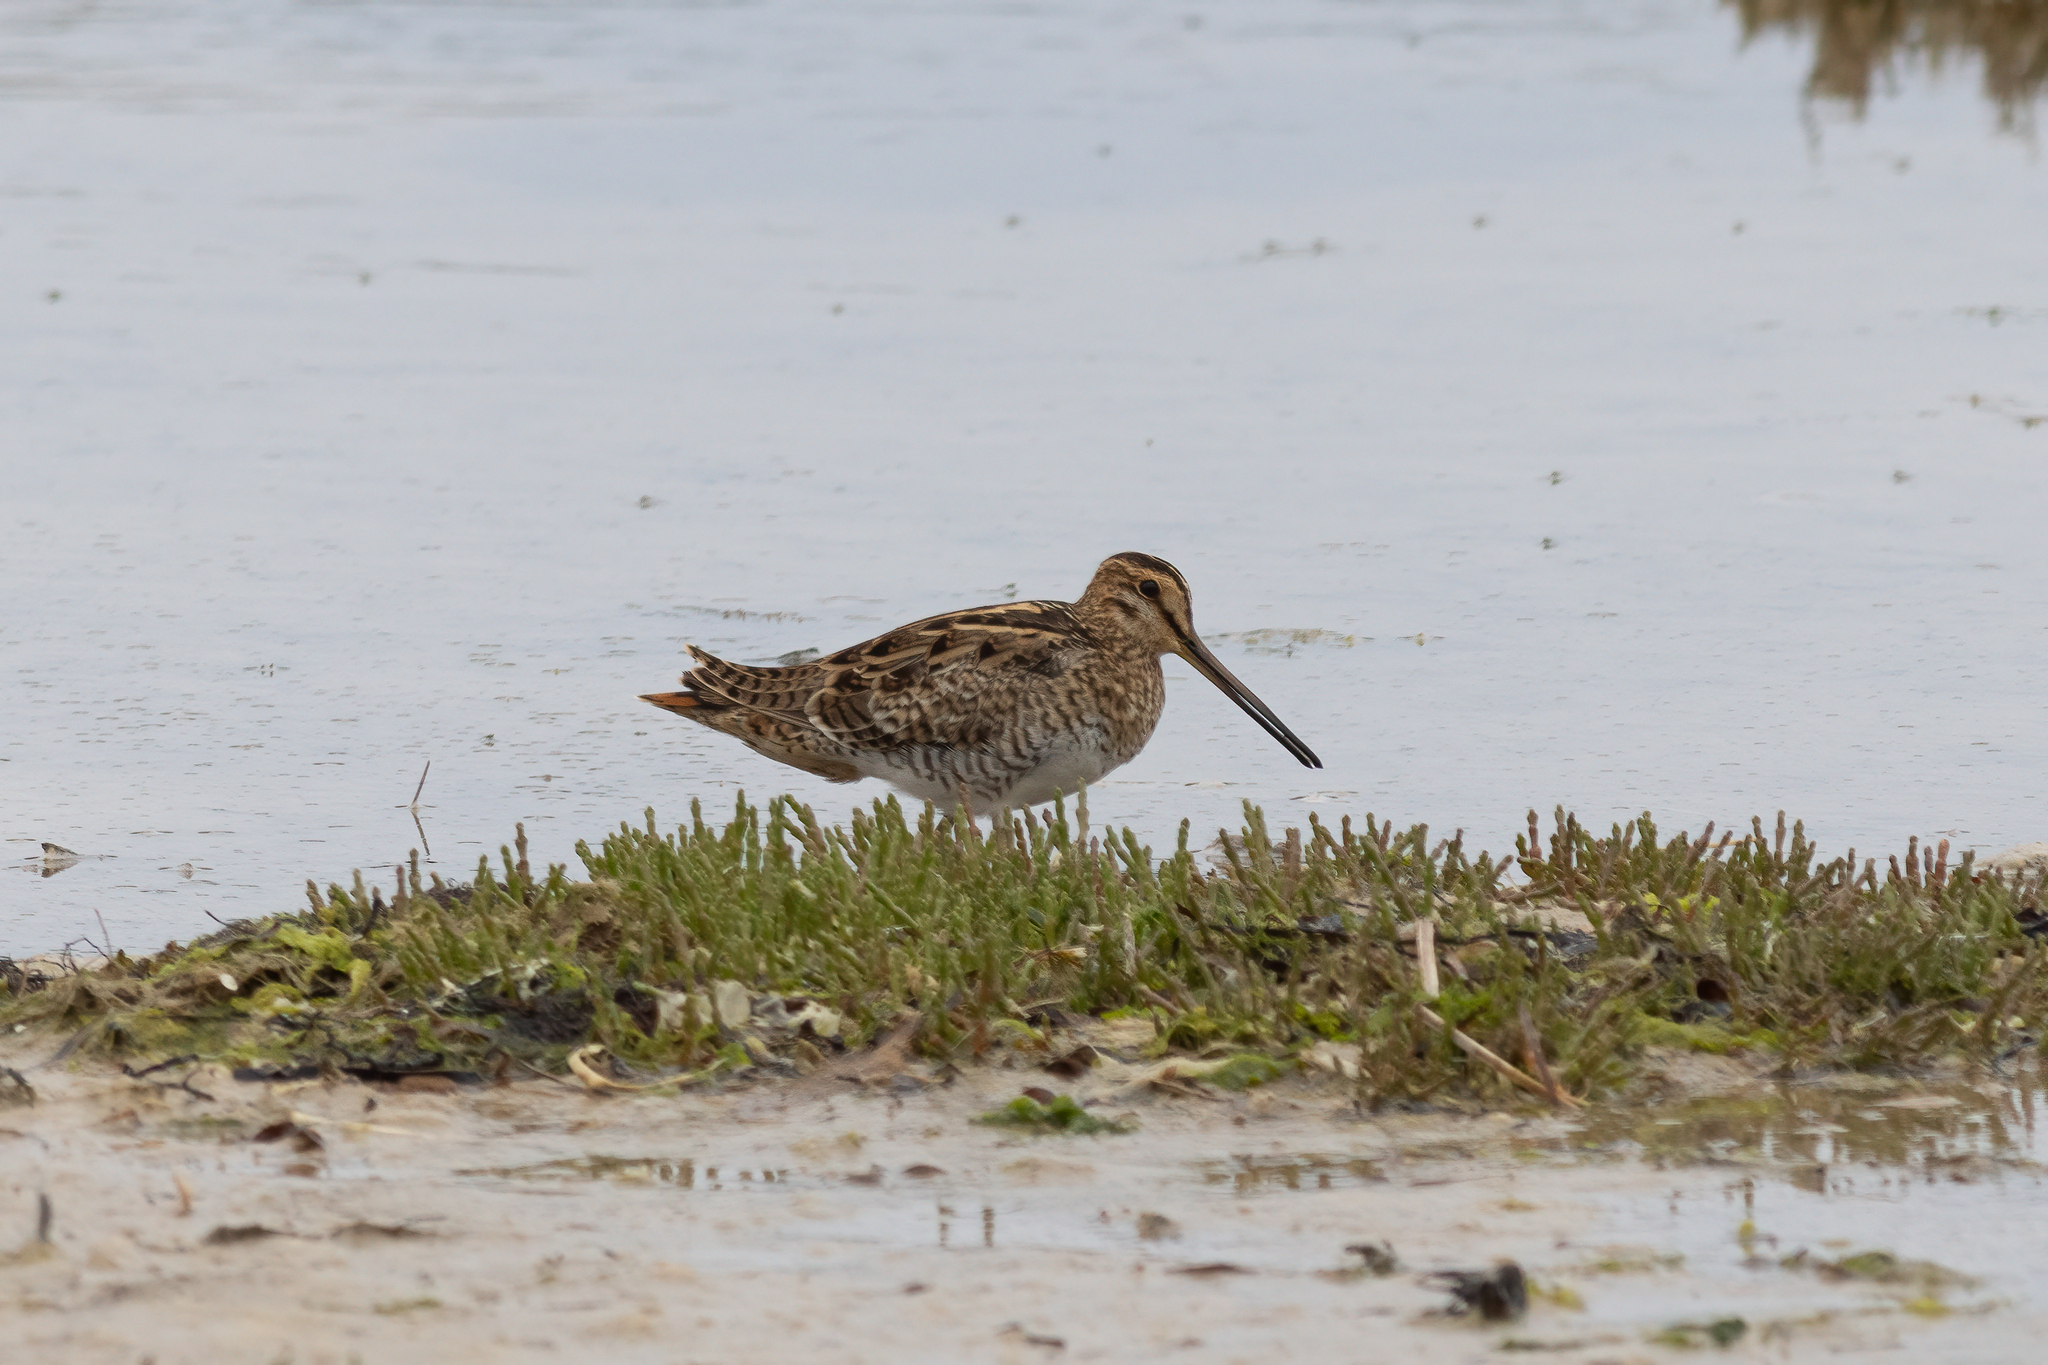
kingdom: Animalia
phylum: Chordata
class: Aves
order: Charadriiformes
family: Scolopacidae
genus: Gallinago
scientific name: Gallinago hardwickii
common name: Latham's snipe
